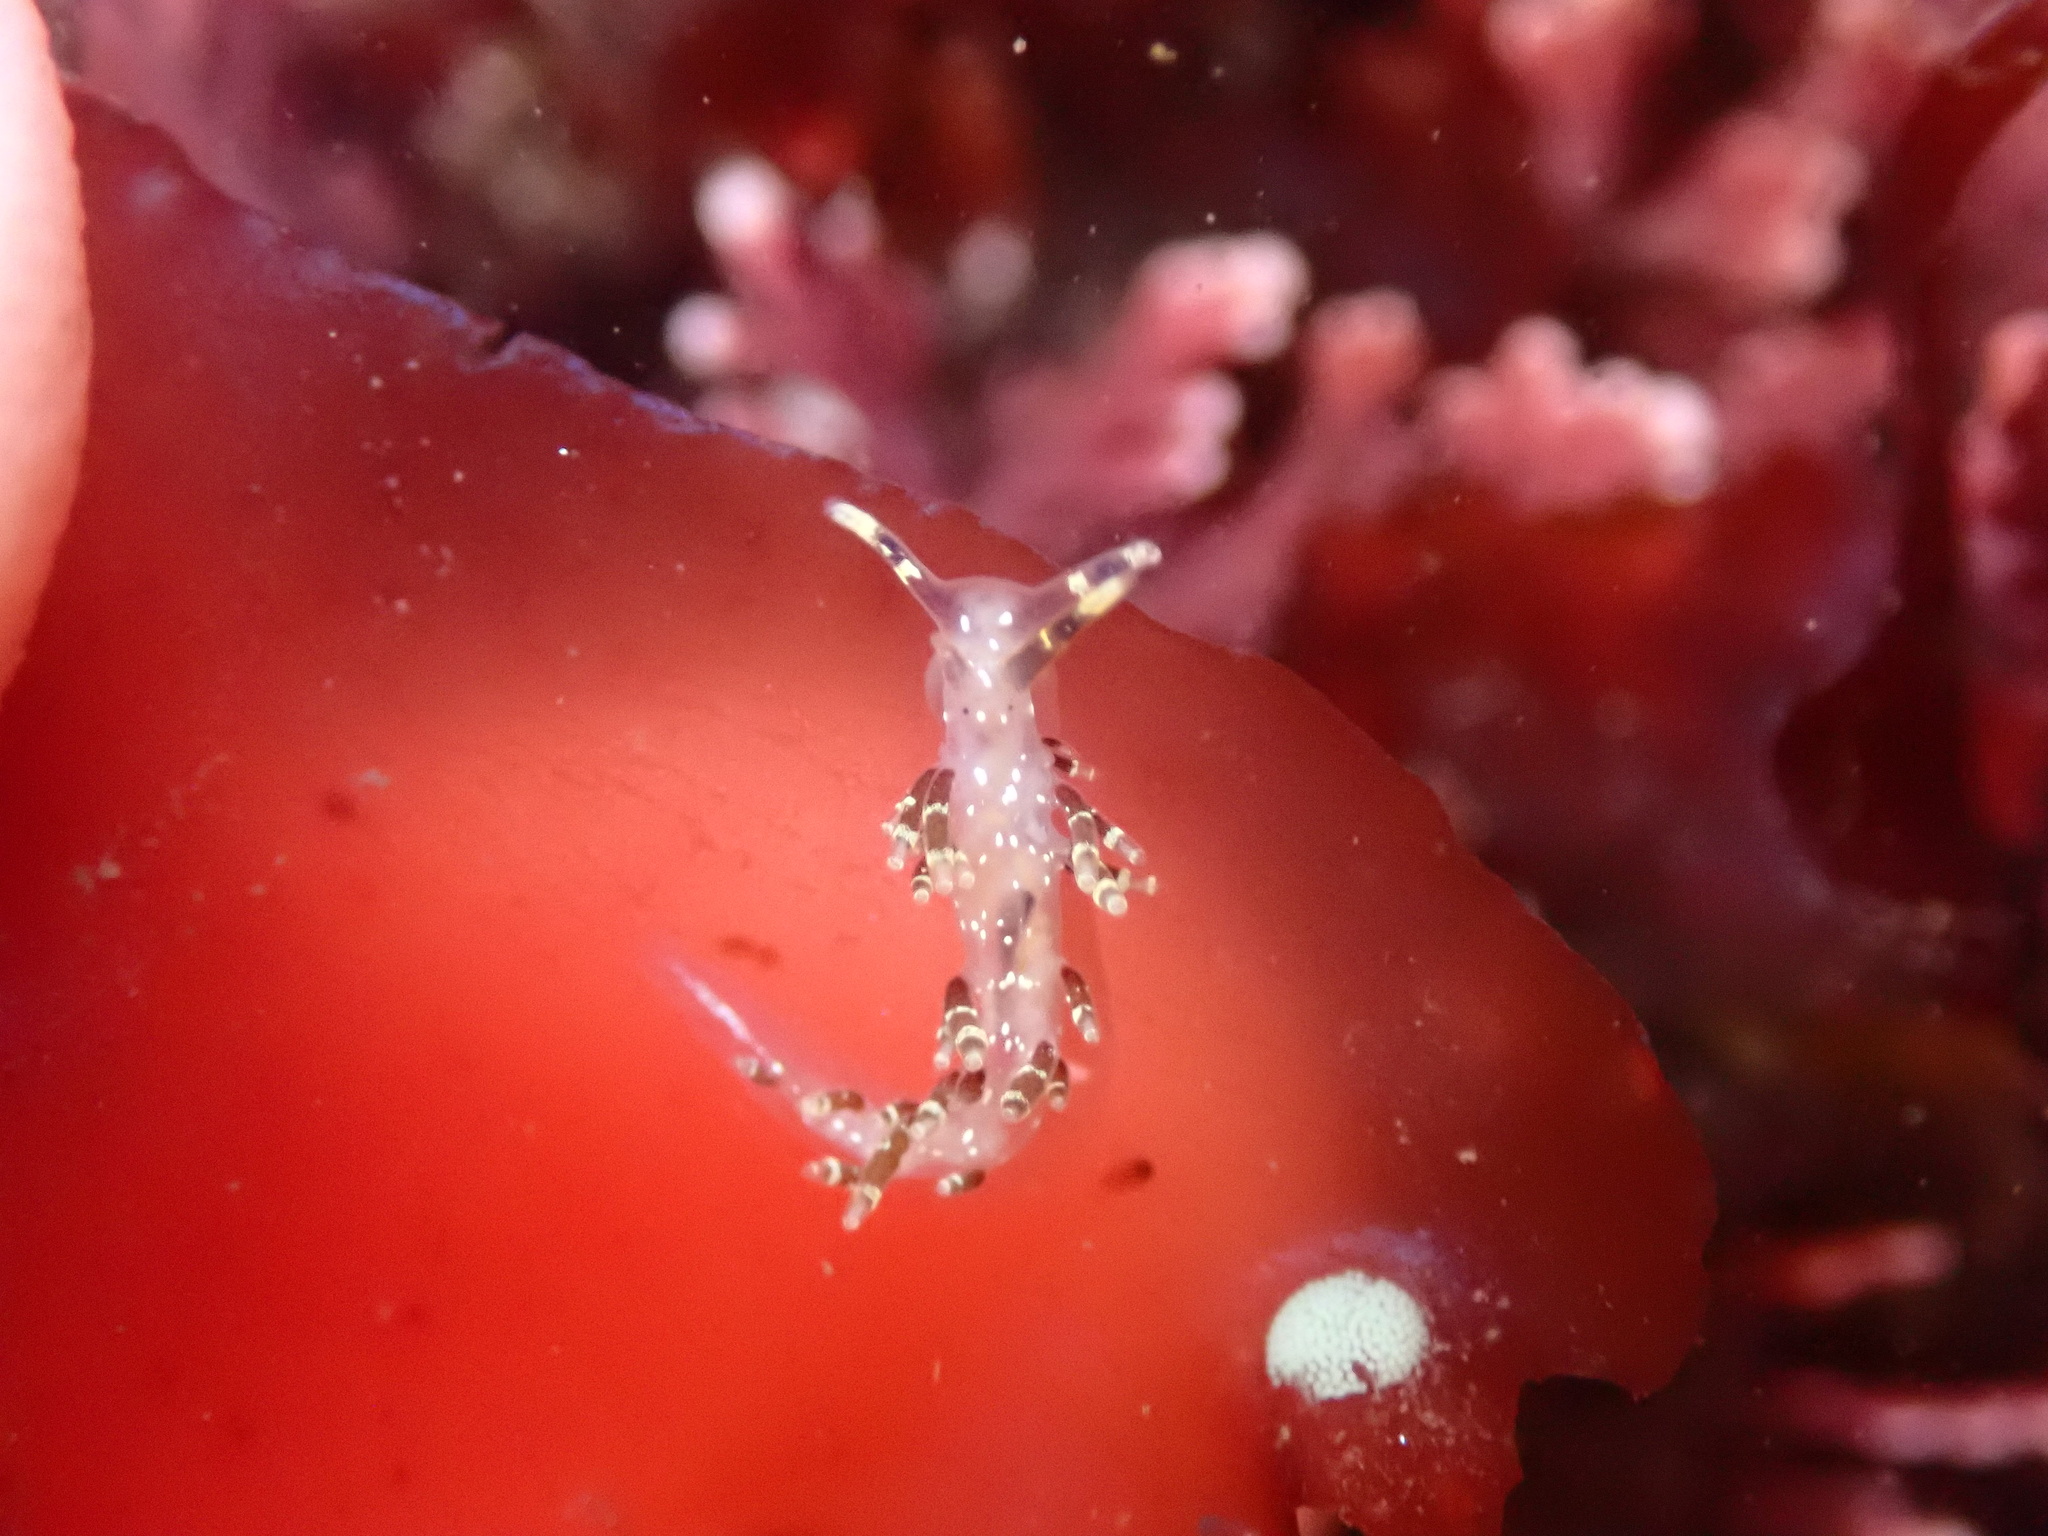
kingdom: Animalia
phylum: Mollusca
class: Gastropoda
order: Nudibranchia
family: Abronicidae
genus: Abronica
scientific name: Abronica abronia
